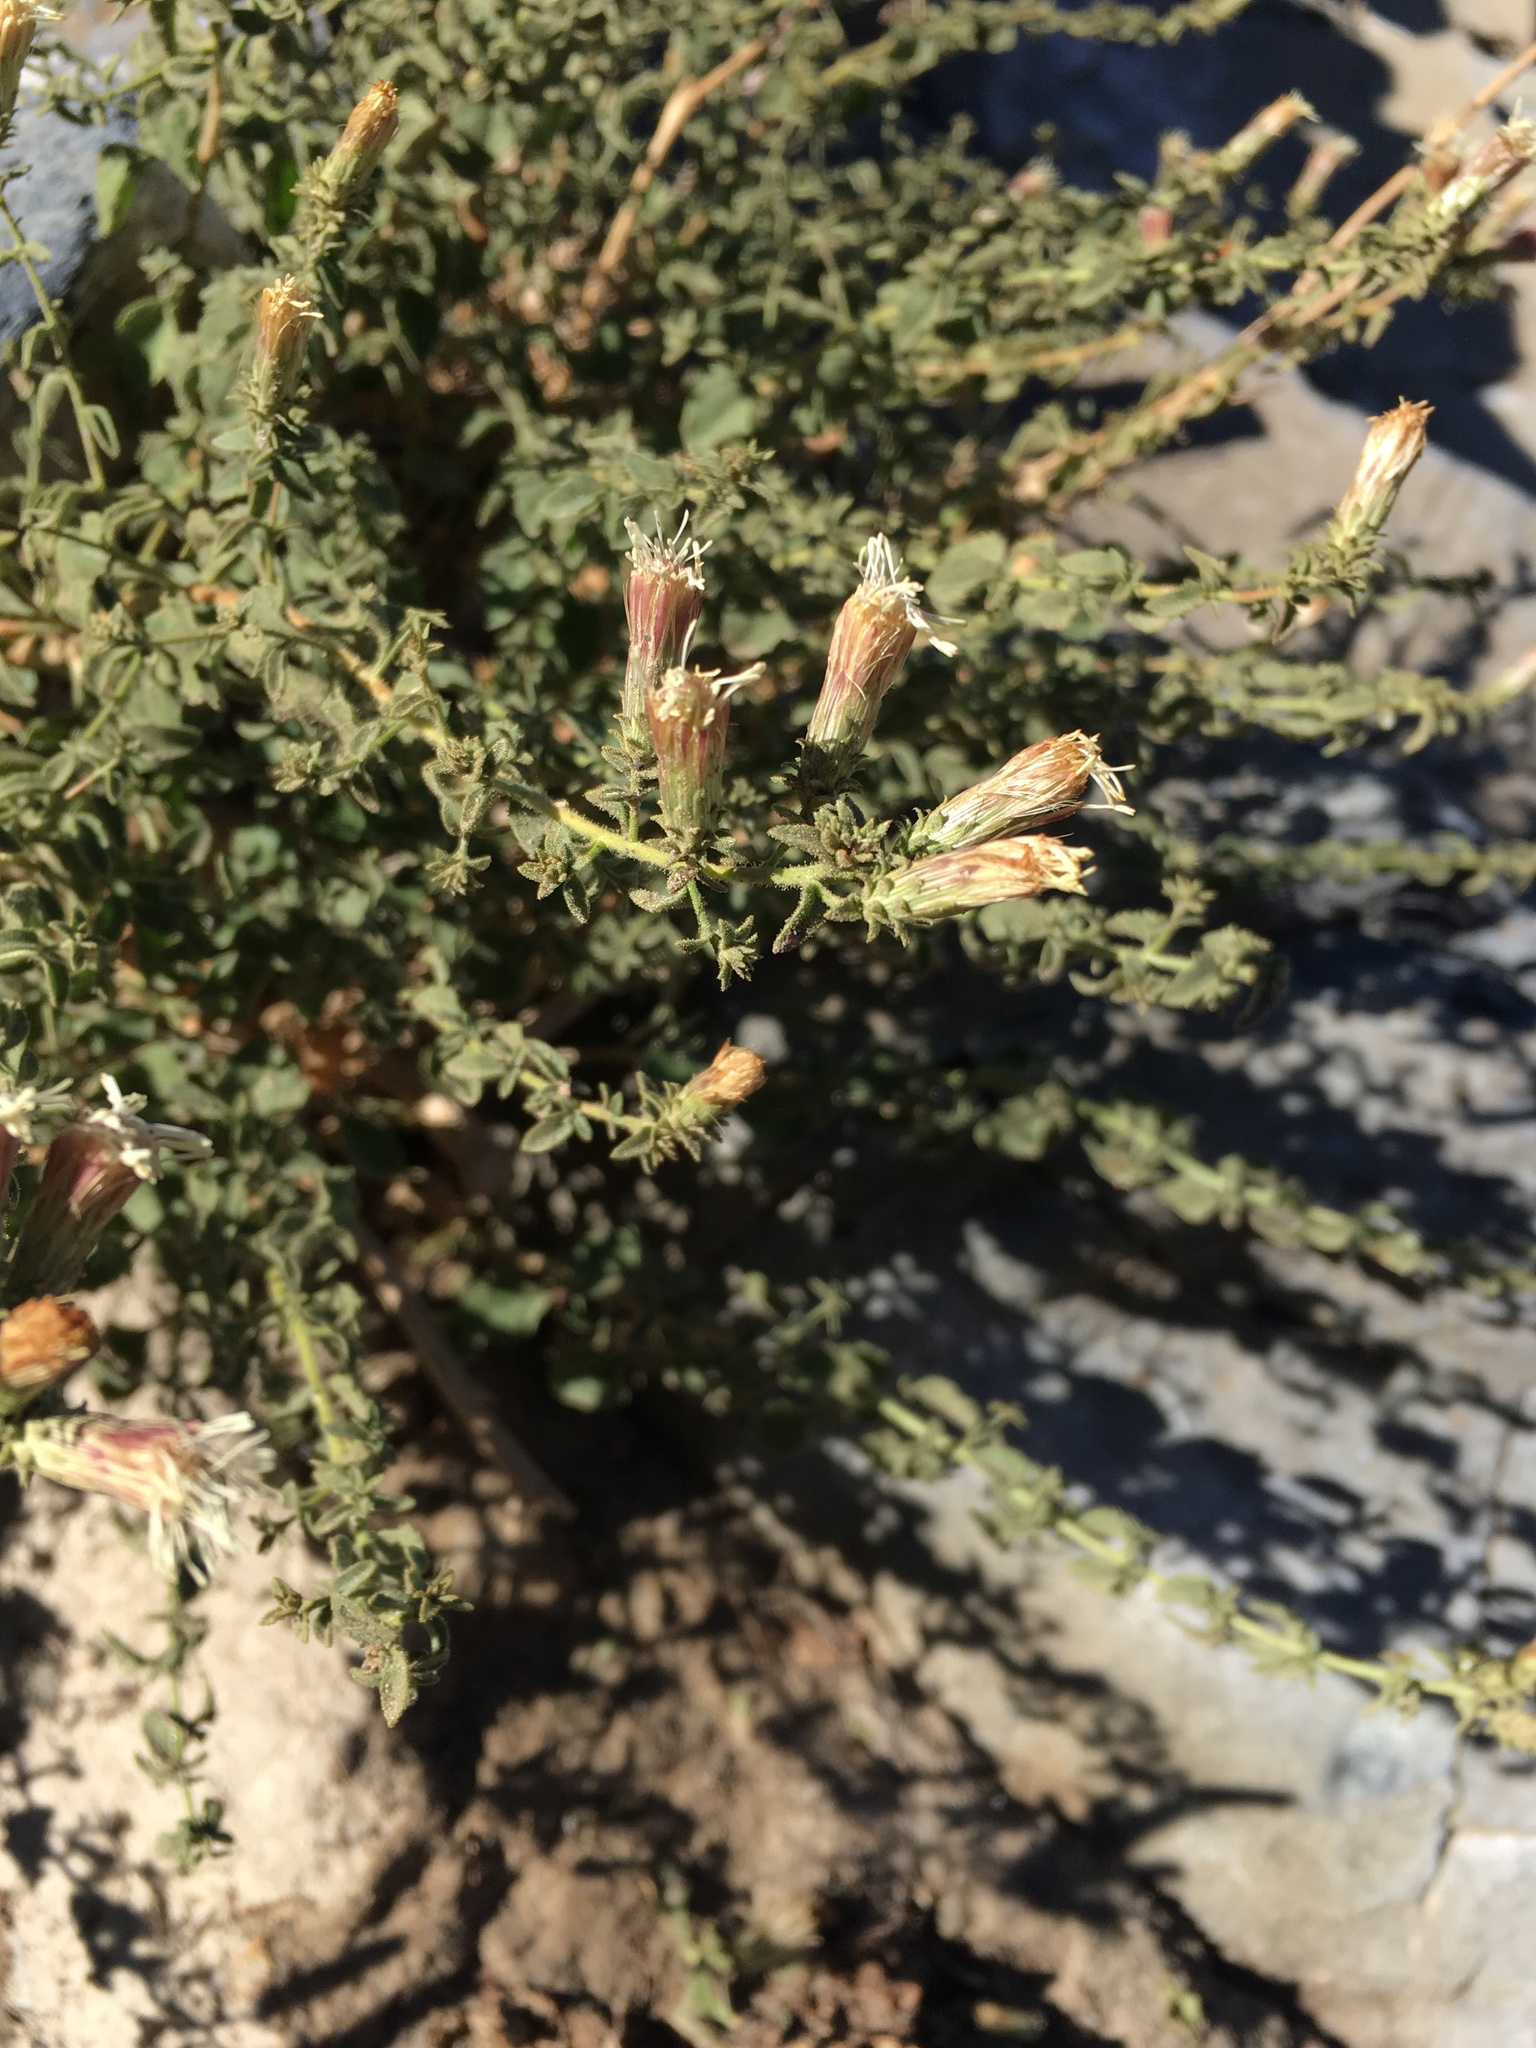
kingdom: Plantae
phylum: Tracheophyta
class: Magnoliopsida
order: Asterales
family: Asteraceae
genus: Brickellia
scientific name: Brickellia microphylla
